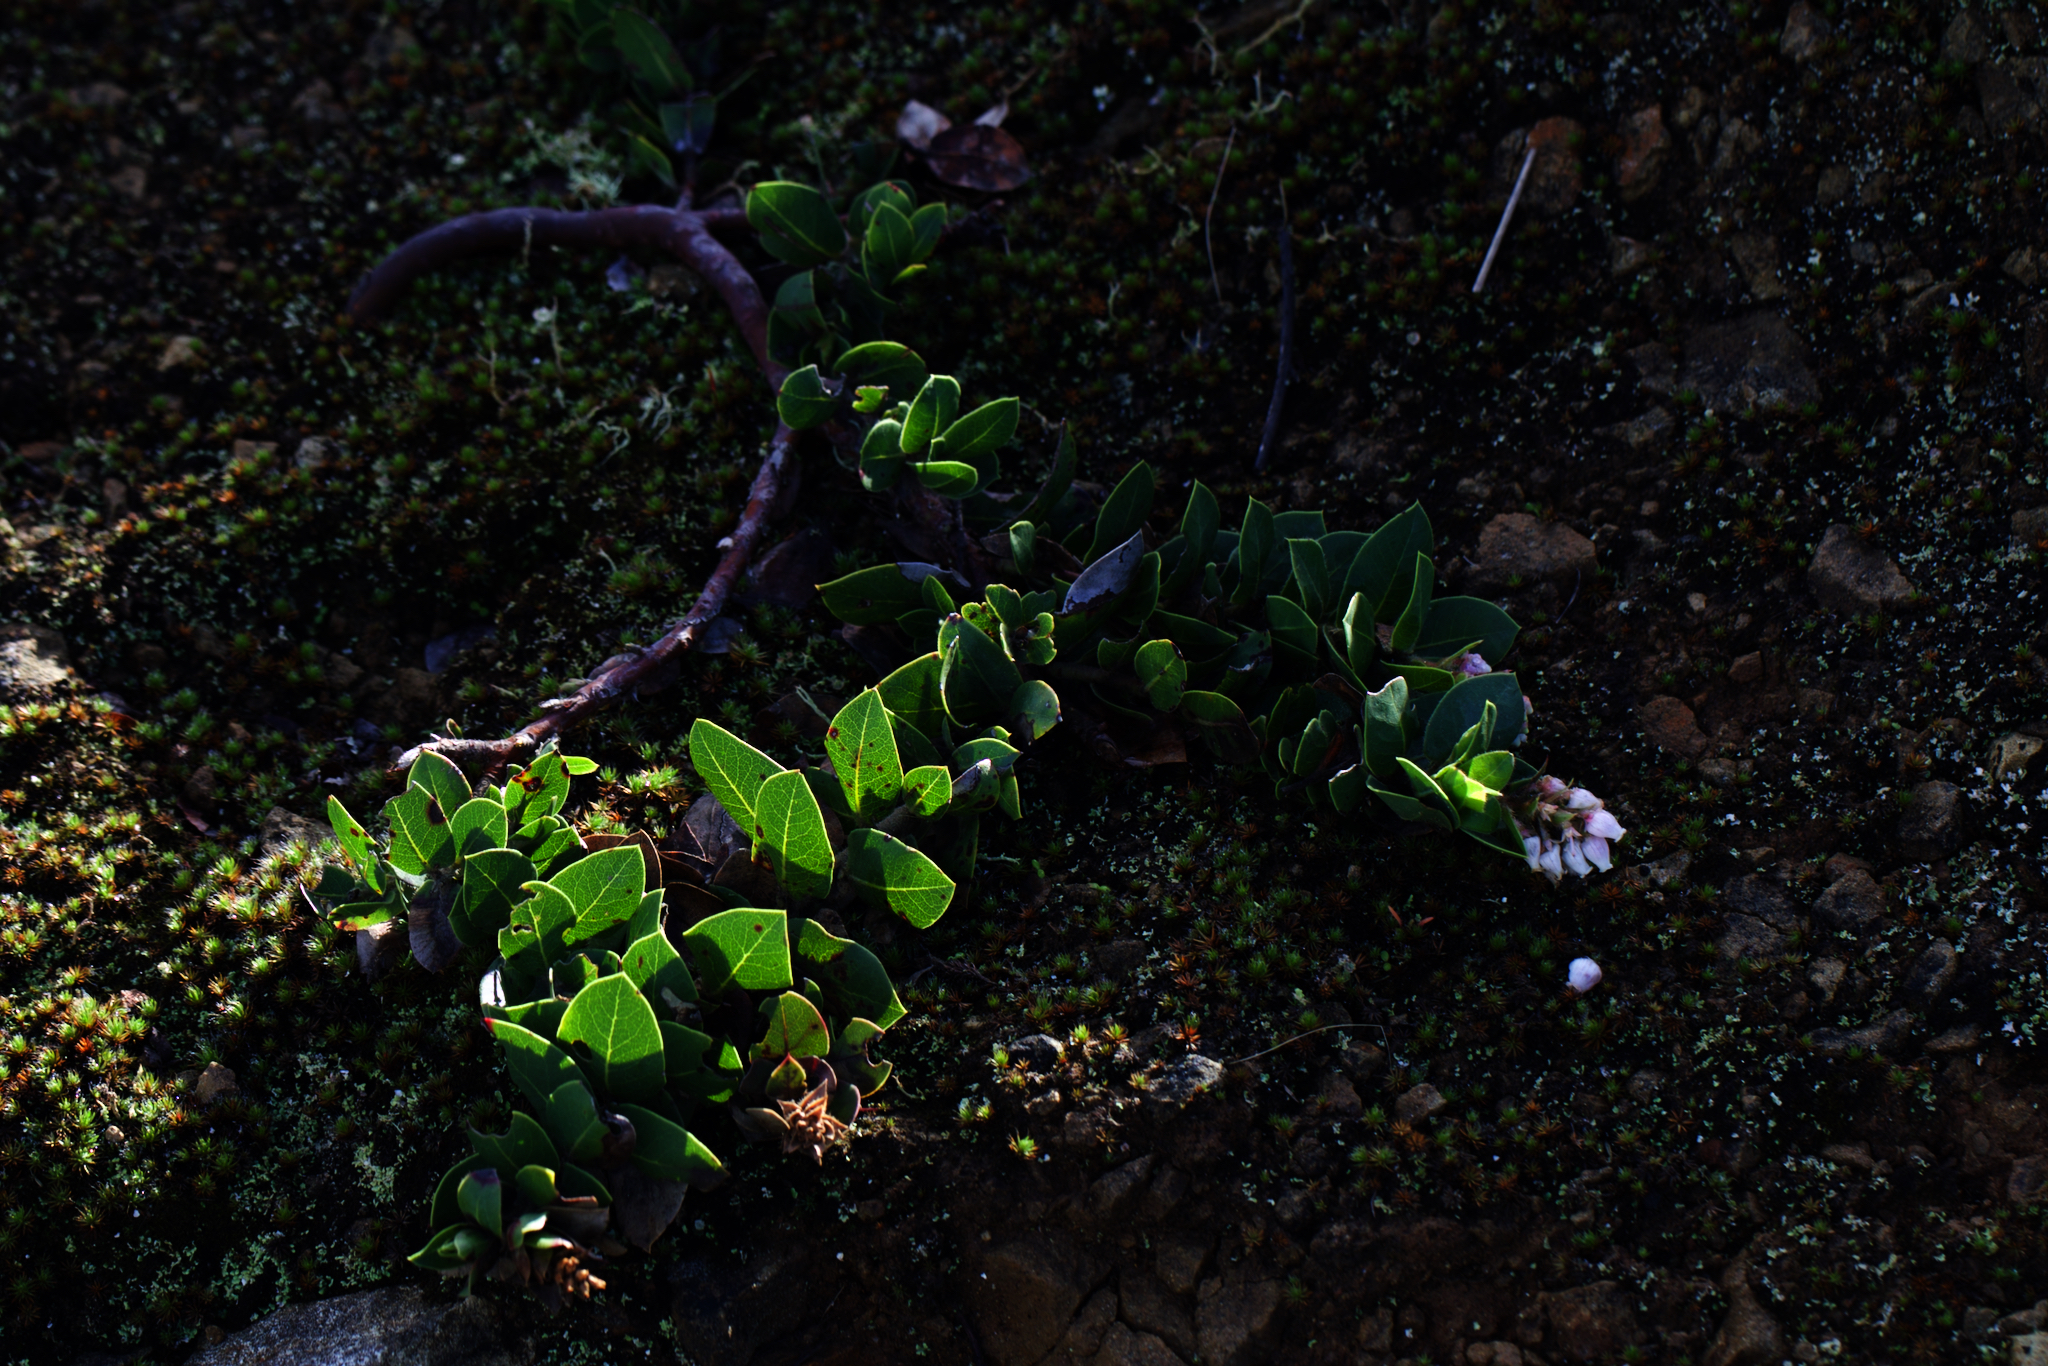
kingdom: Plantae
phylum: Tracheophyta
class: Magnoliopsida
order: Ericales
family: Ericaceae
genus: Arctostaphylos
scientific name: Arctostaphylos imbricata
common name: San bruno mountain manzanita
